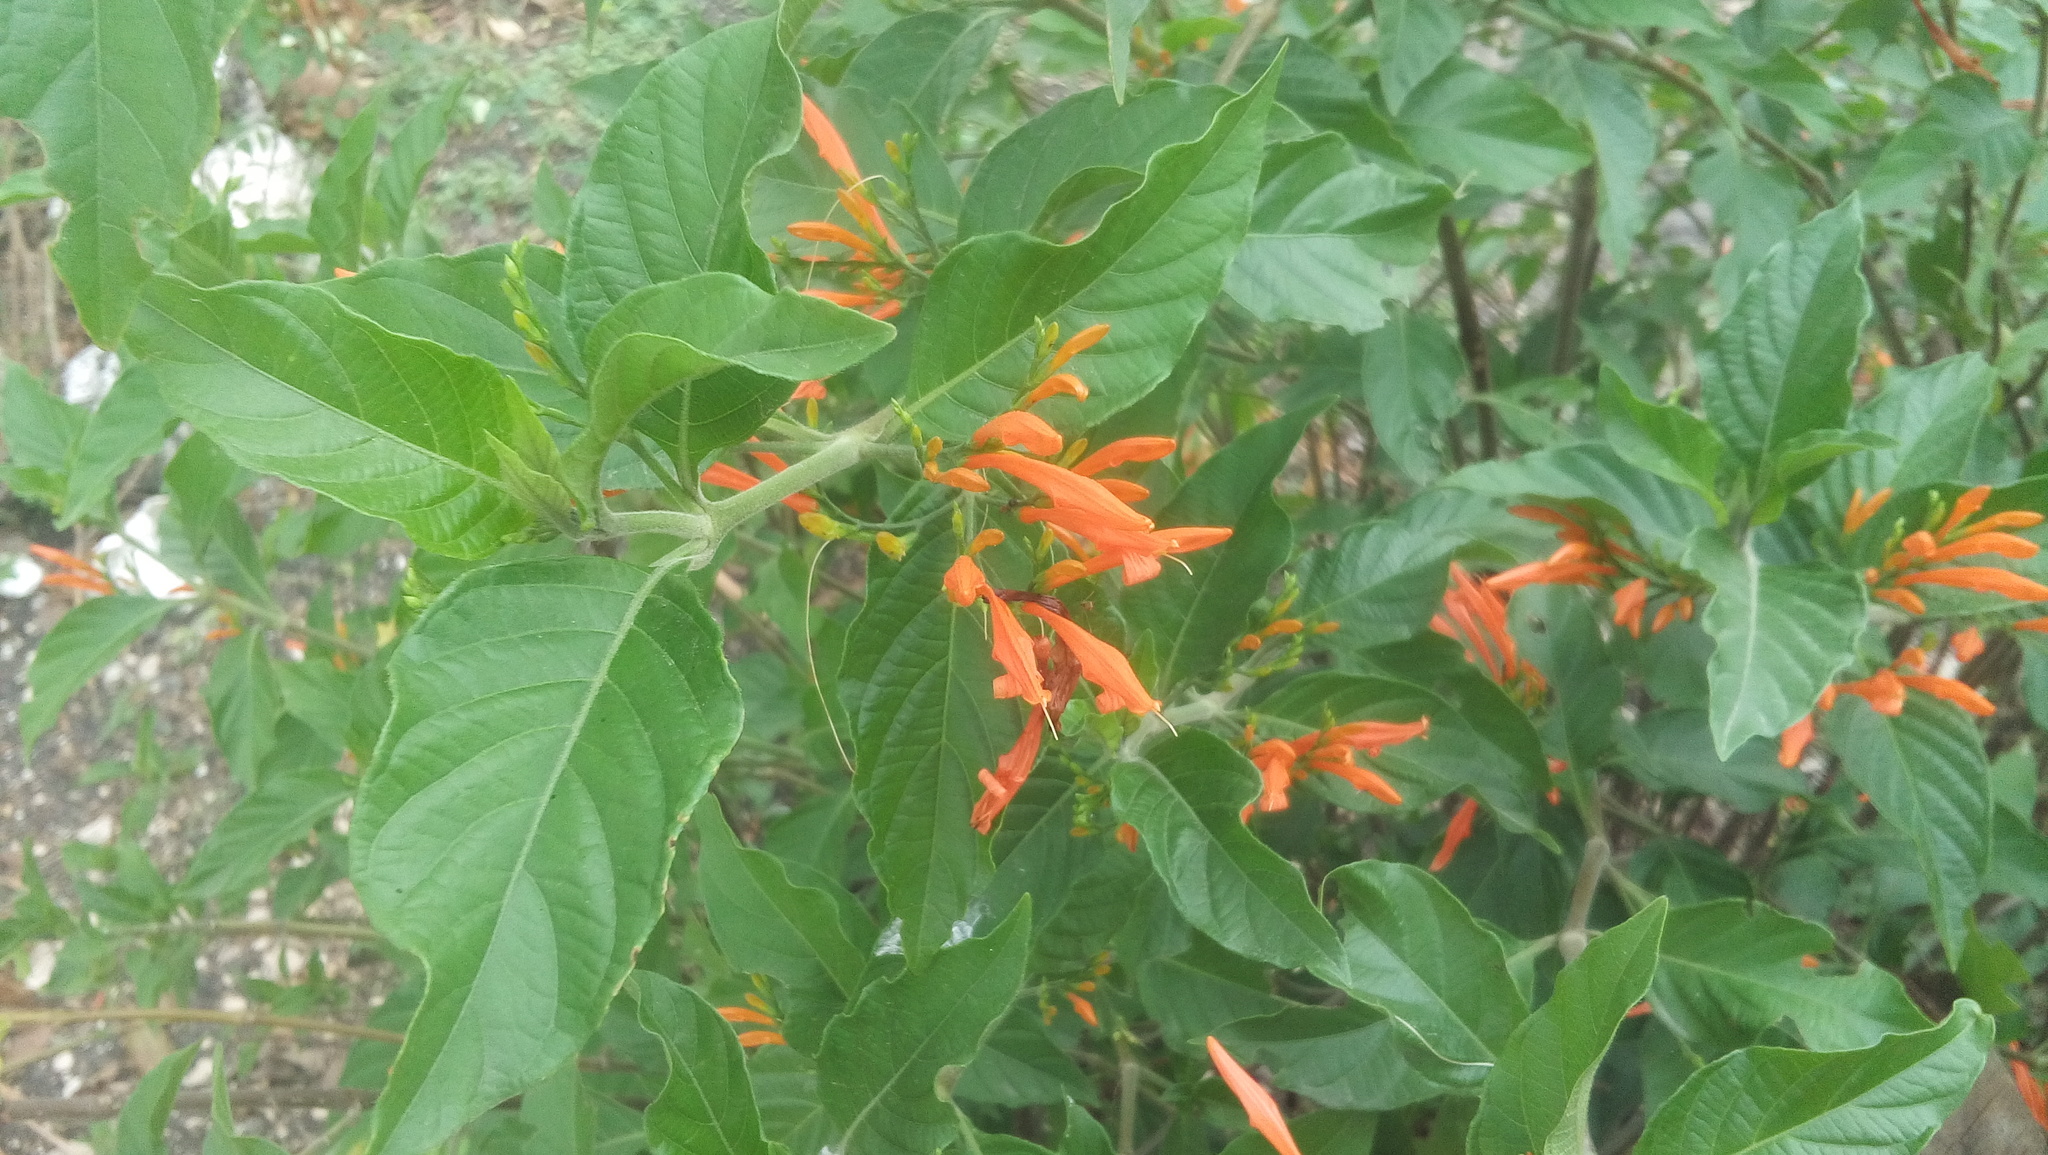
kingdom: Plantae
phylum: Tracheophyta
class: Magnoliopsida
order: Lamiales
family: Acanthaceae
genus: Justicia
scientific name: Justicia spicigera
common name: Mohintli
